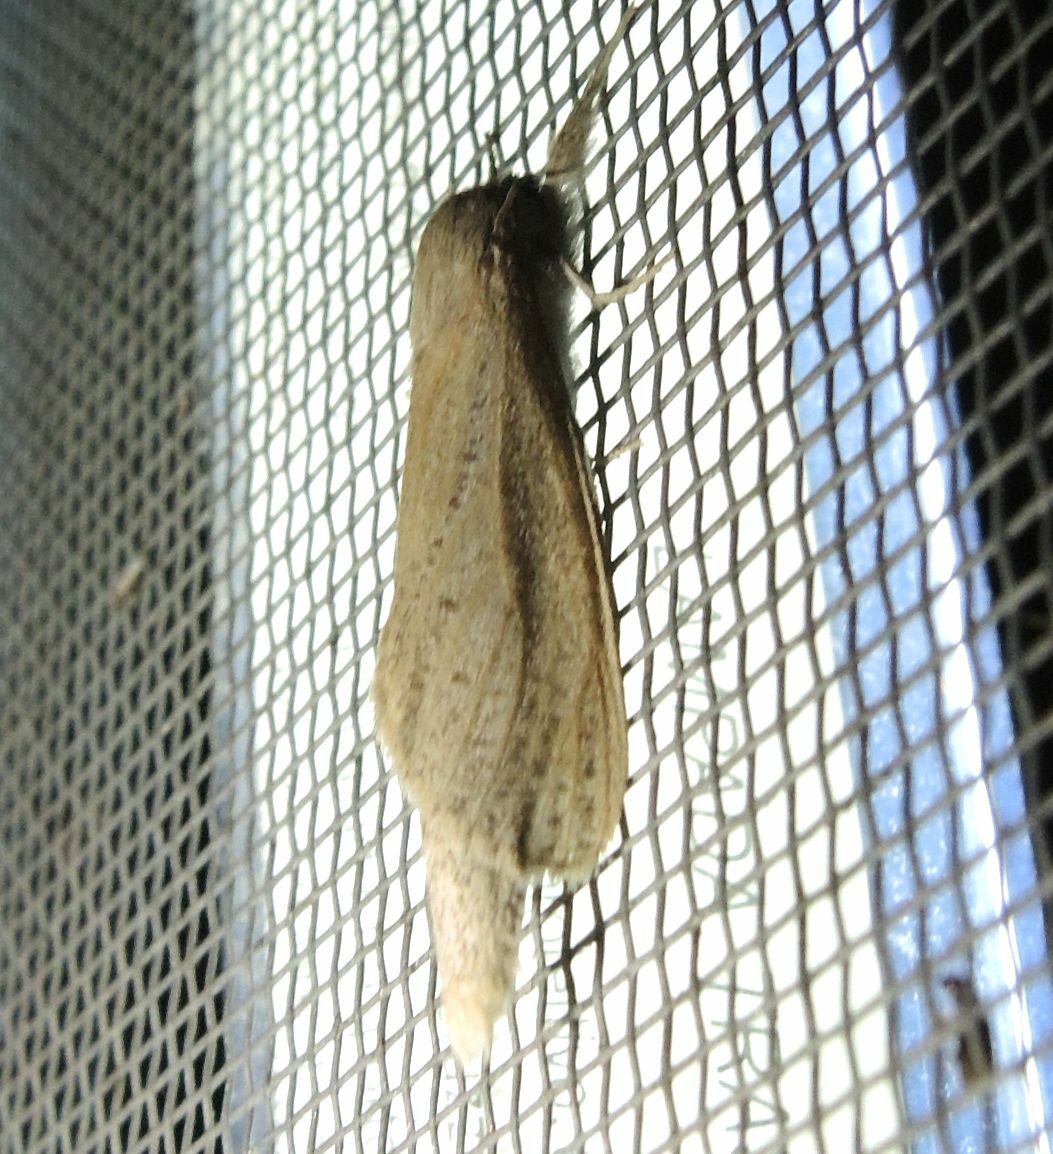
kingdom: Animalia
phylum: Arthropoda
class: Insecta
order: Lepidoptera
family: Cossidae
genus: Phragmataecia
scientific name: Phragmataecia castaneae
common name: Reed leopard
